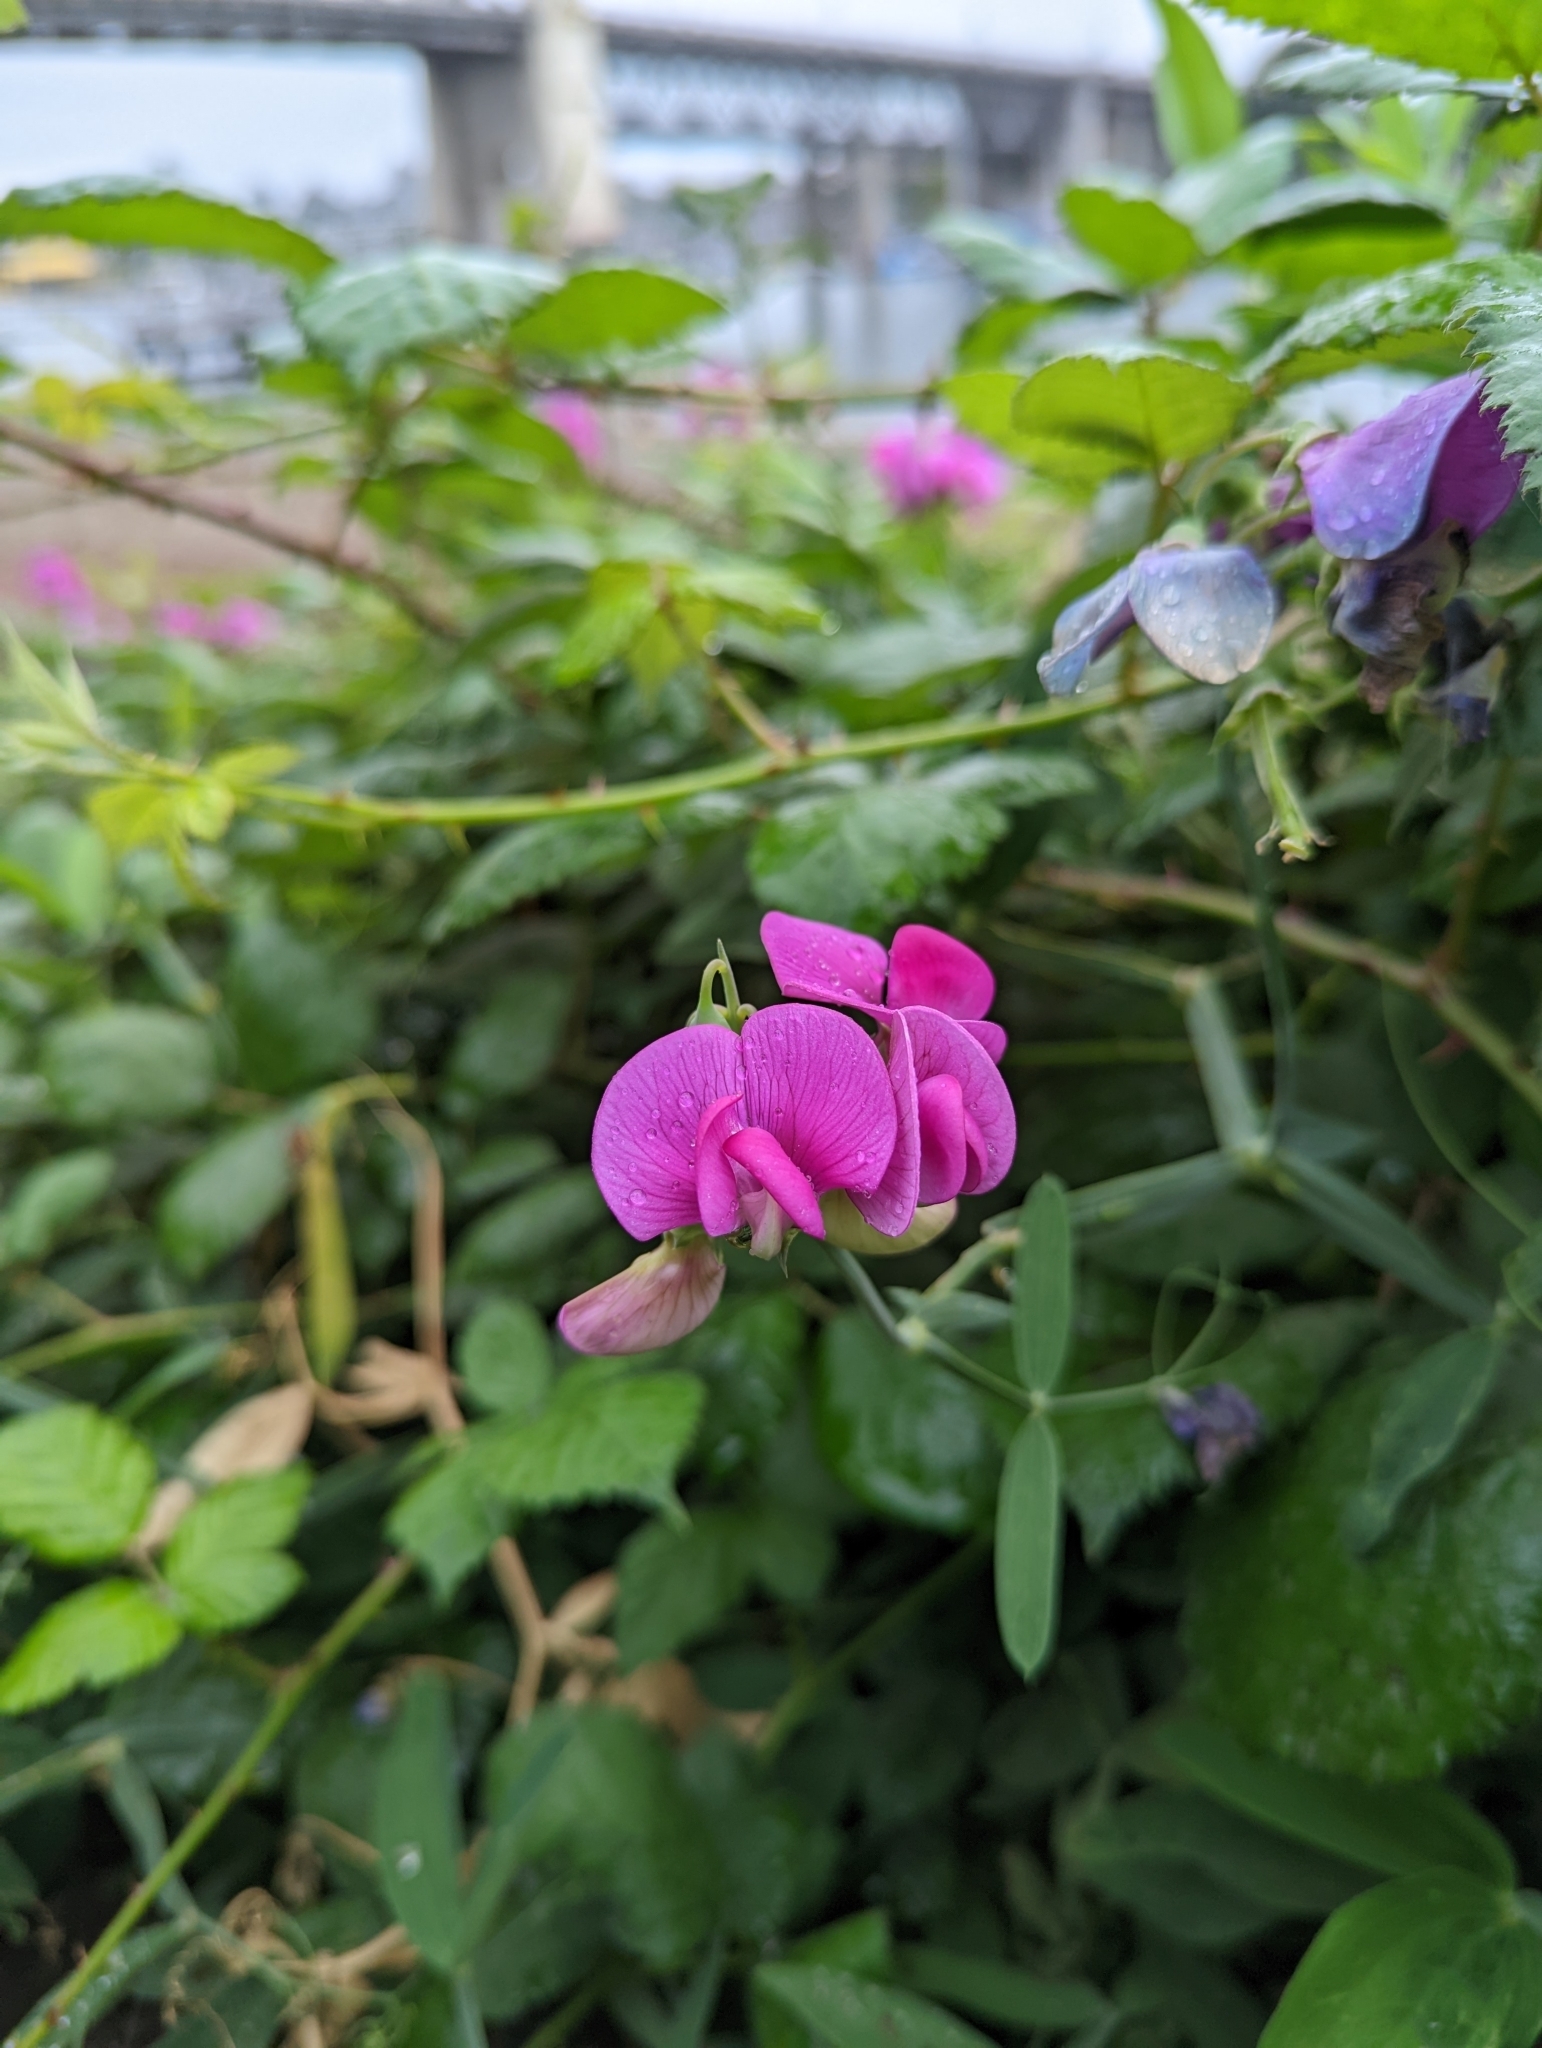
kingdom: Plantae
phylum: Tracheophyta
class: Magnoliopsida
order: Fabales
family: Fabaceae
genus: Lathyrus
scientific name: Lathyrus latifolius
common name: Perennial pea
